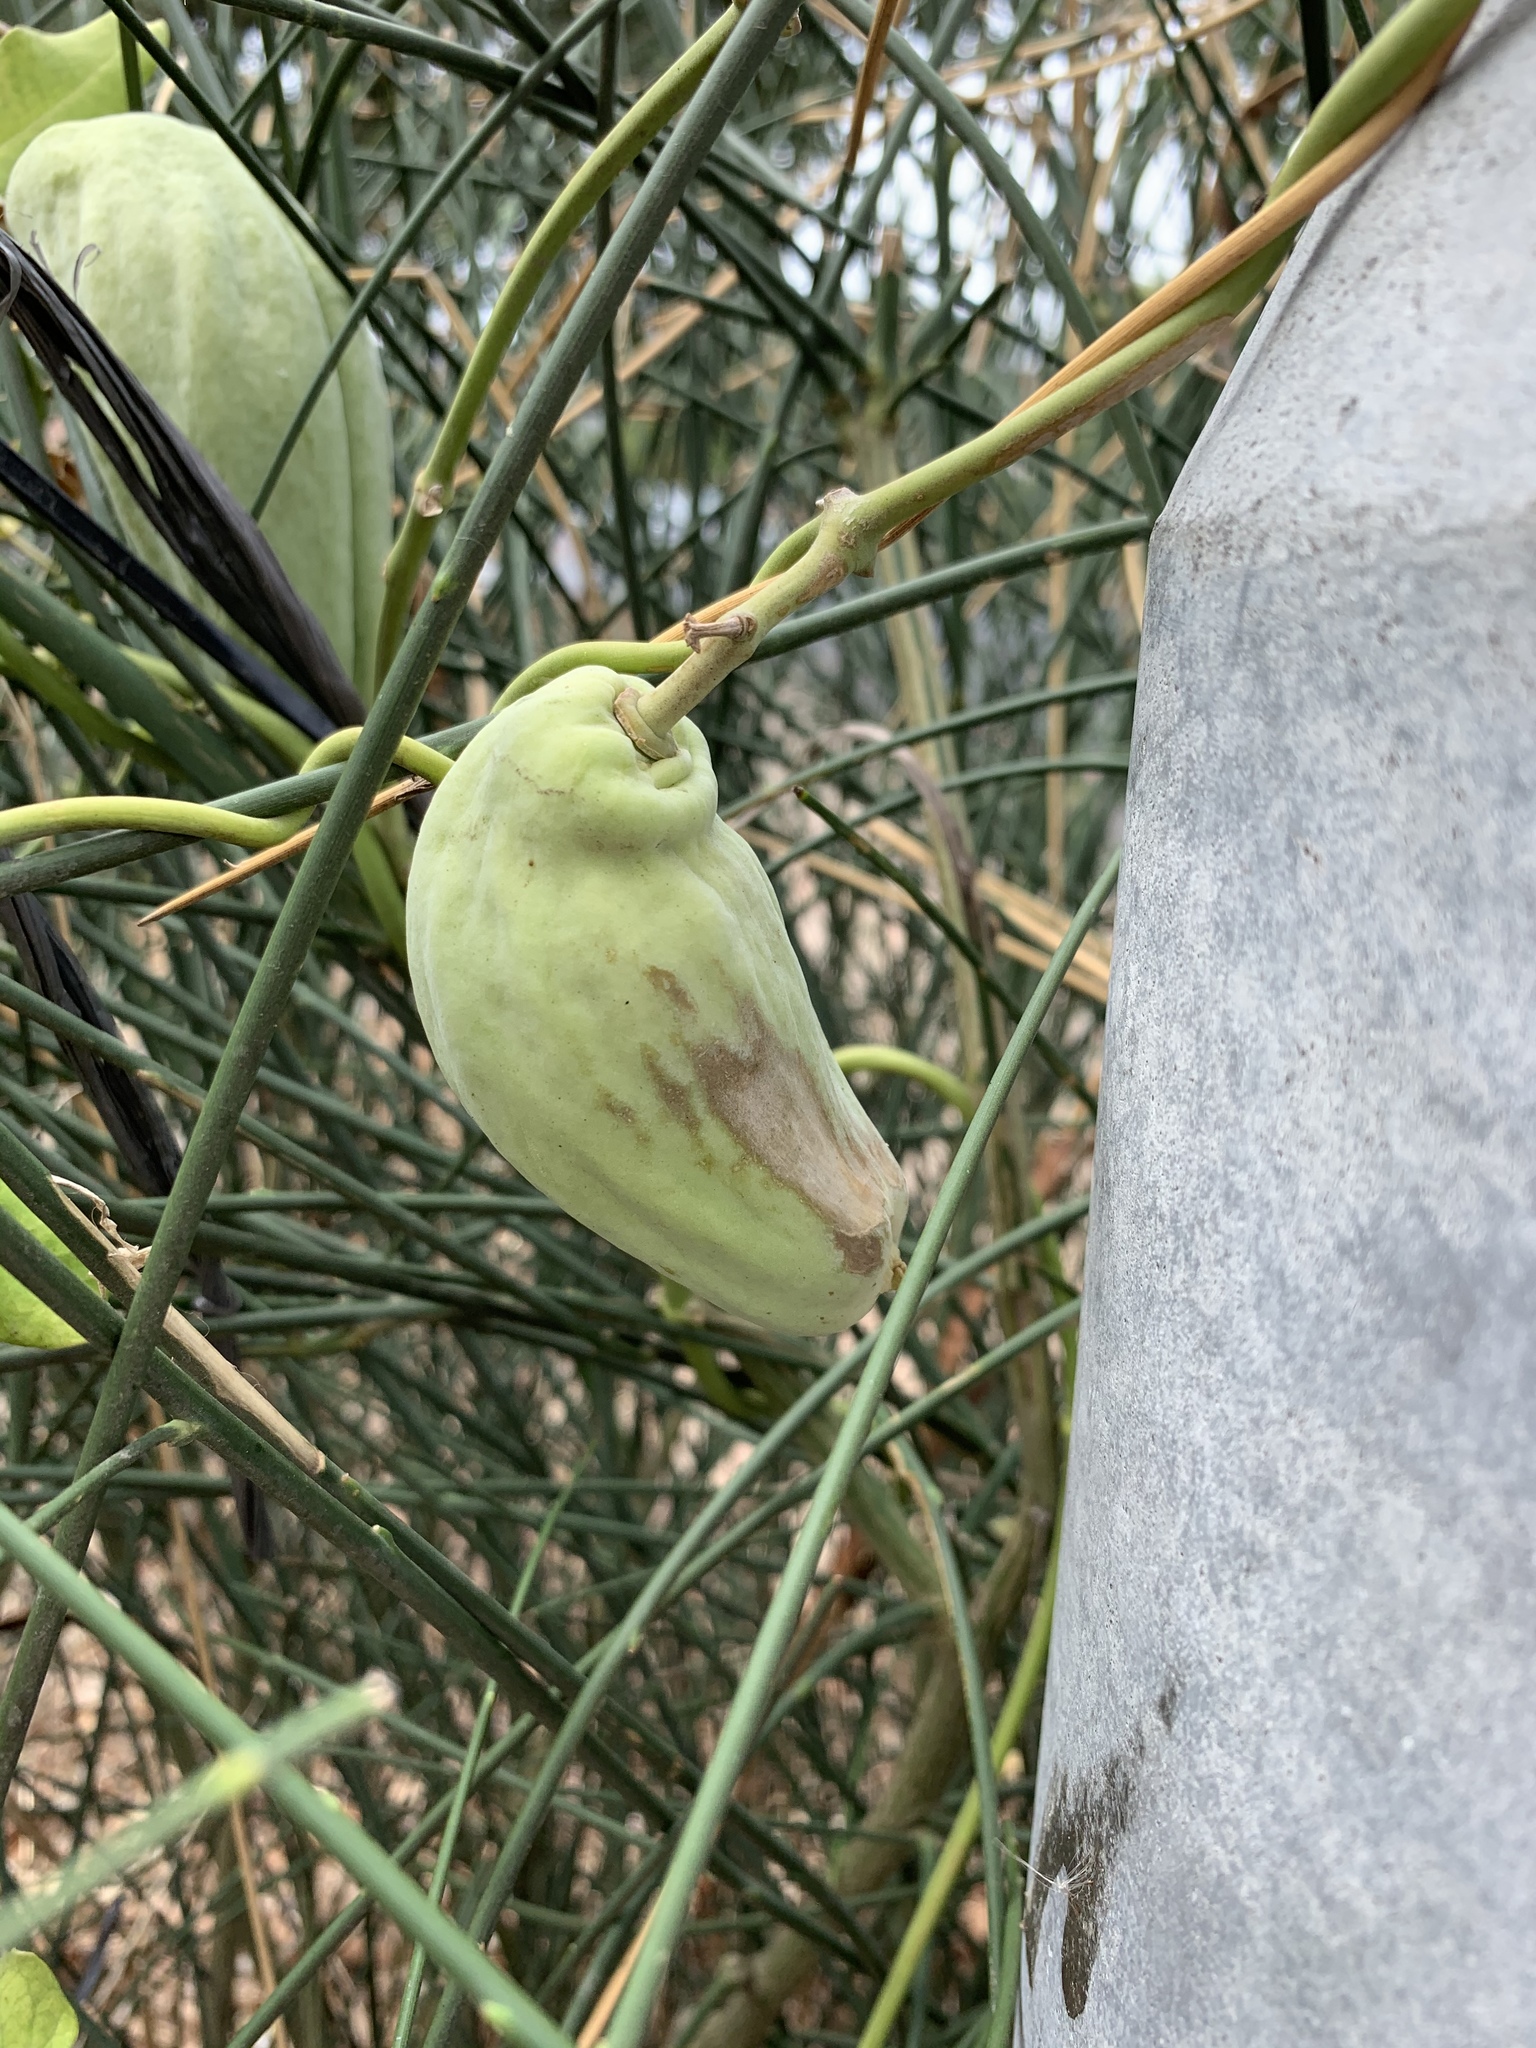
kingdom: Plantae
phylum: Tracheophyta
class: Magnoliopsida
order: Gentianales
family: Apocynaceae
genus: Araujia
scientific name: Araujia sericifera
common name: White bladderflower
